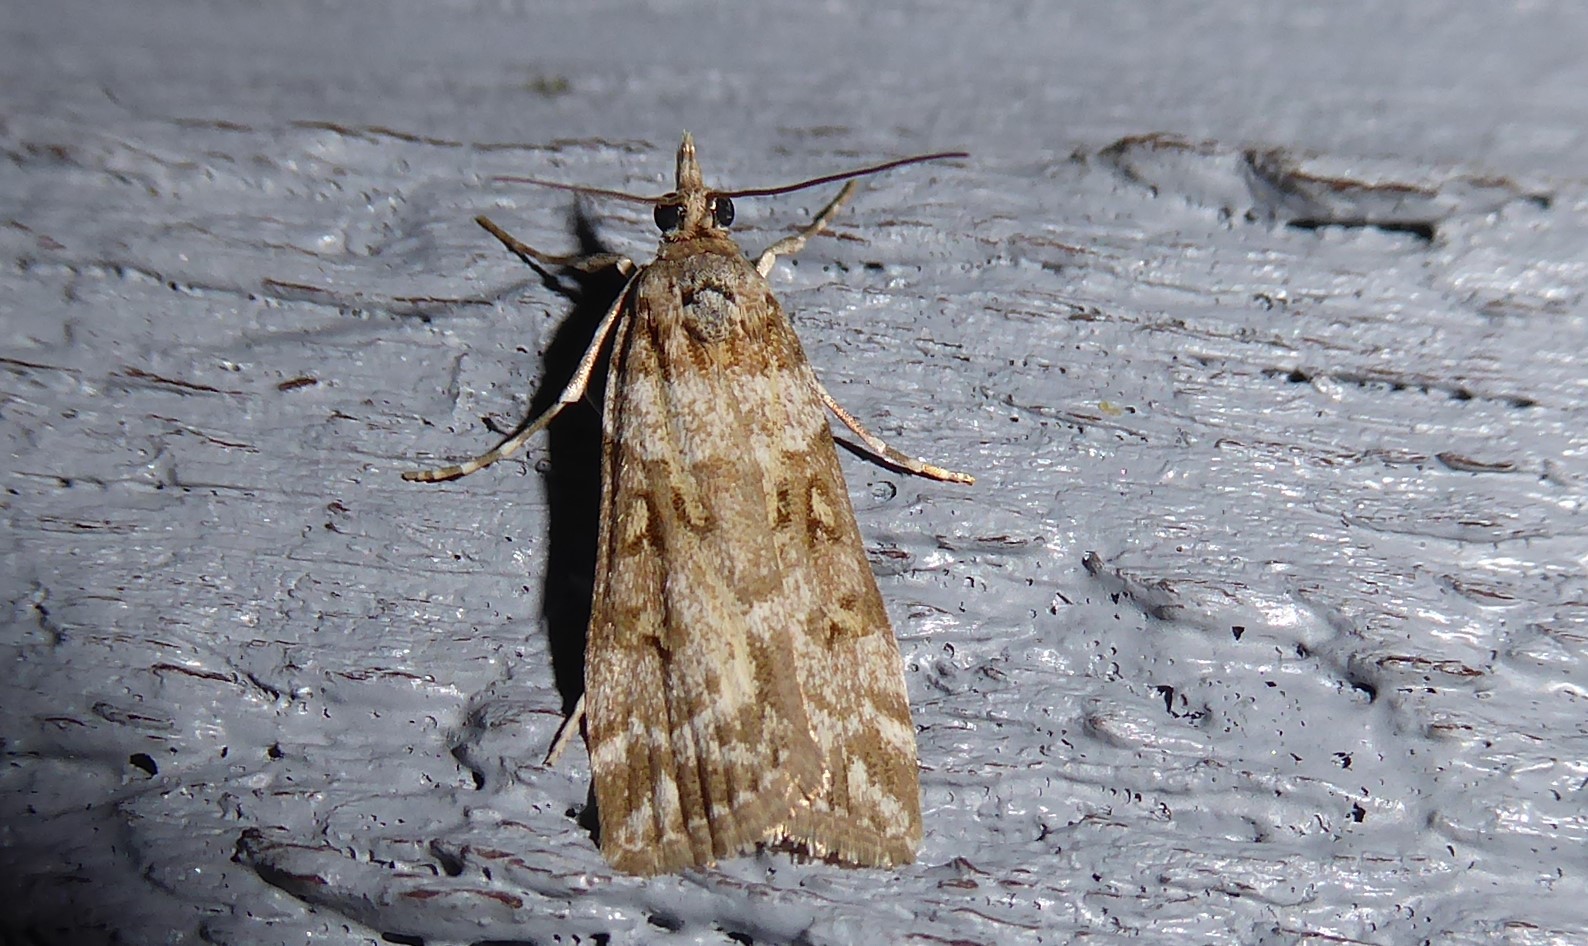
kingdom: Animalia
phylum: Arthropoda
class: Insecta
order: Lepidoptera
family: Crambidae
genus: Eudonia
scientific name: Eudonia diphtheralis
